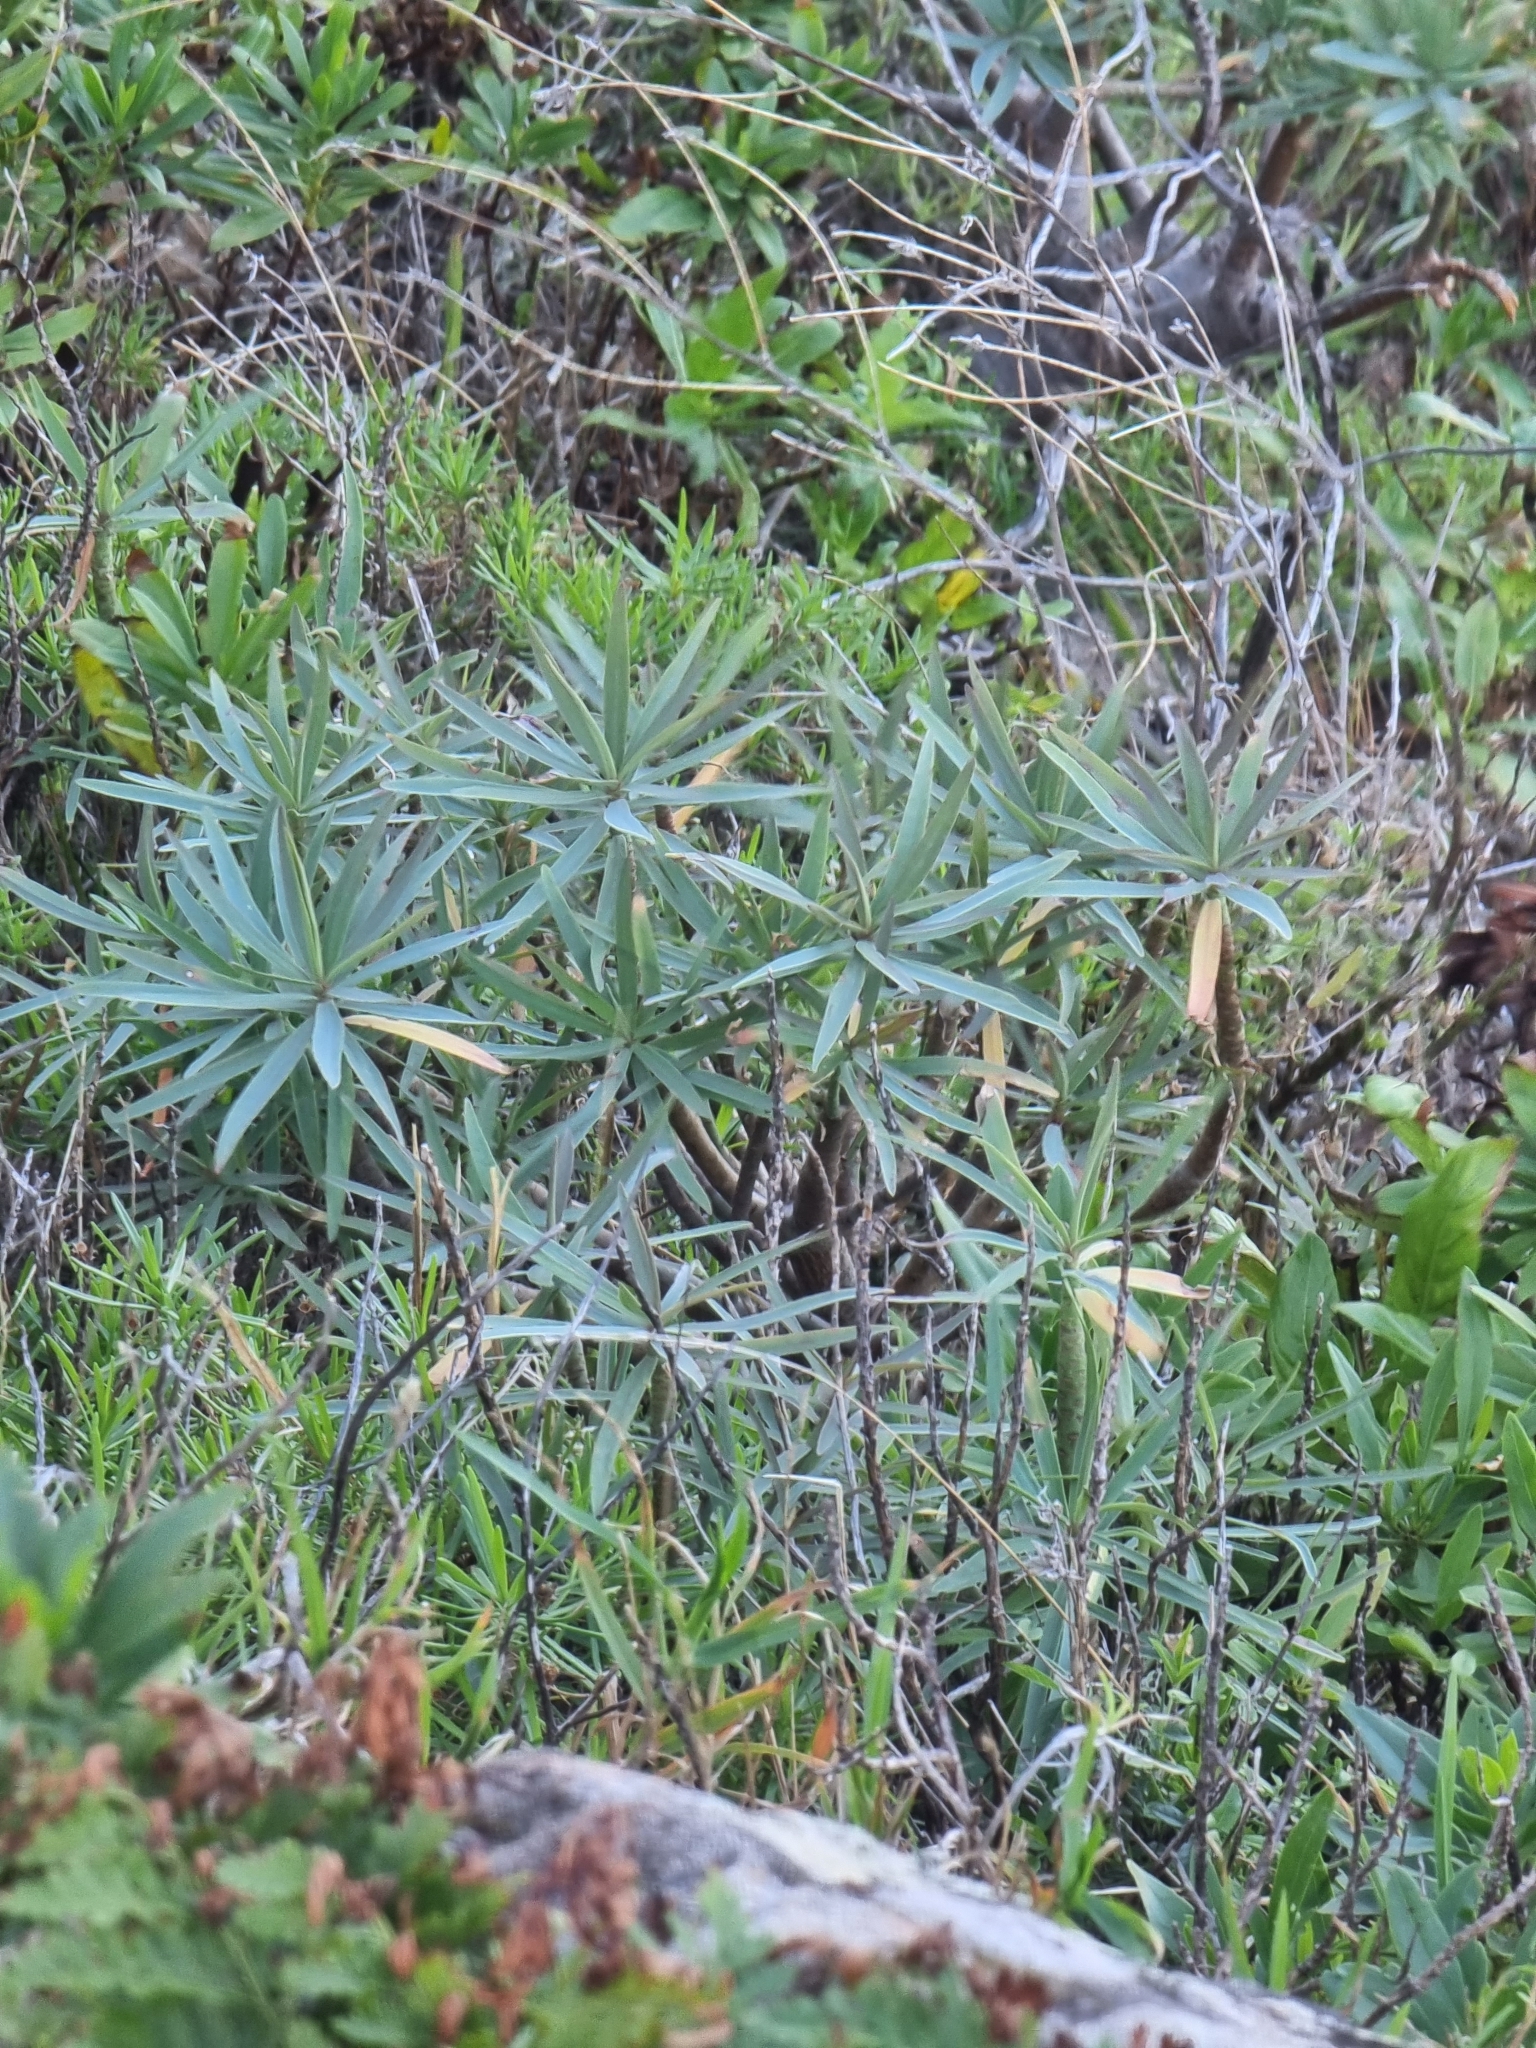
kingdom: Plantae
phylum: Tracheophyta
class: Magnoliopsida
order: Malpighiales
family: Euphorbiaceae
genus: Euphorbia
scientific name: Euphorbia piscatoria
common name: Fish-stunning spurge
